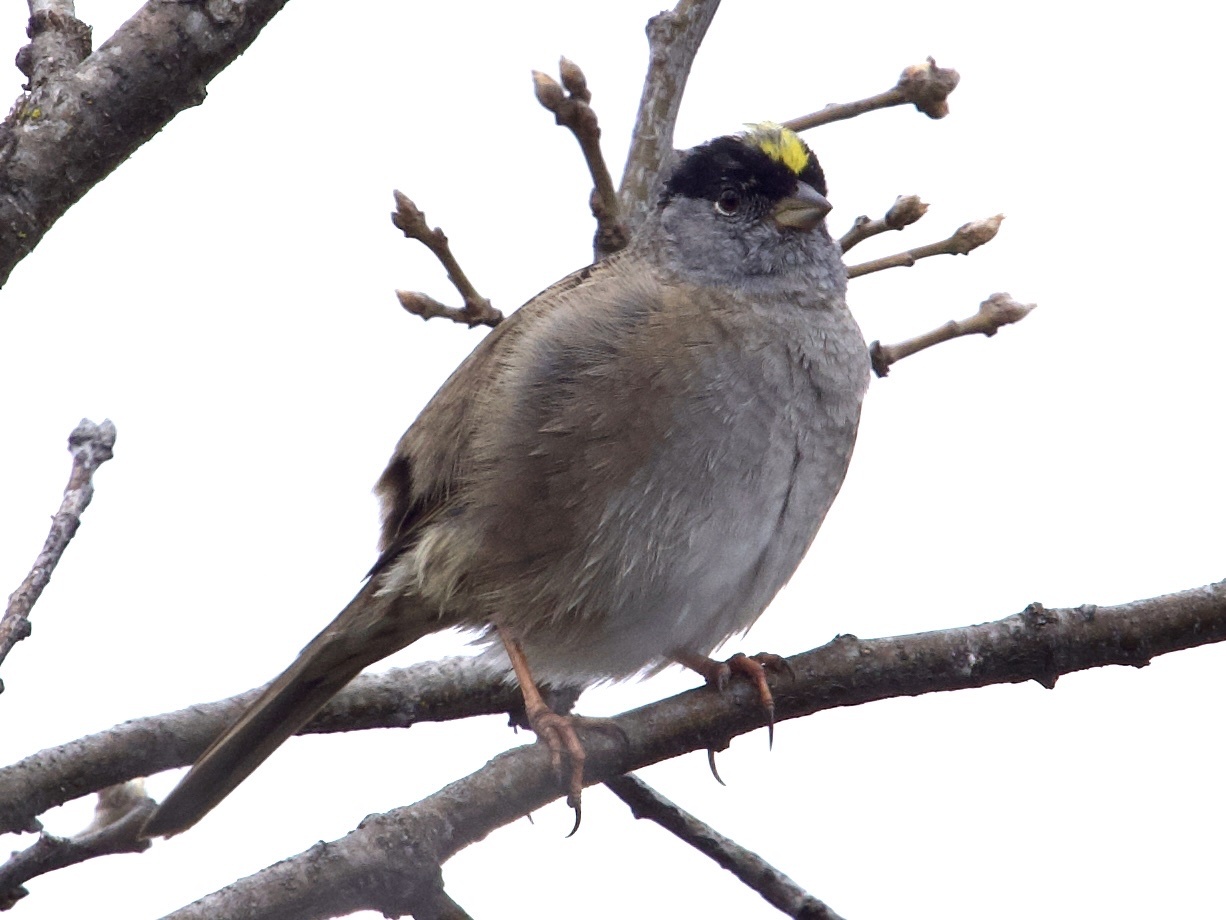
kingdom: Animalia
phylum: Chordata
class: Aves
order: Passeriformes
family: Passerellidae
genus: Zonotrichia
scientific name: Zonotrichia atricapilla
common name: Golden-crowned sparrow
